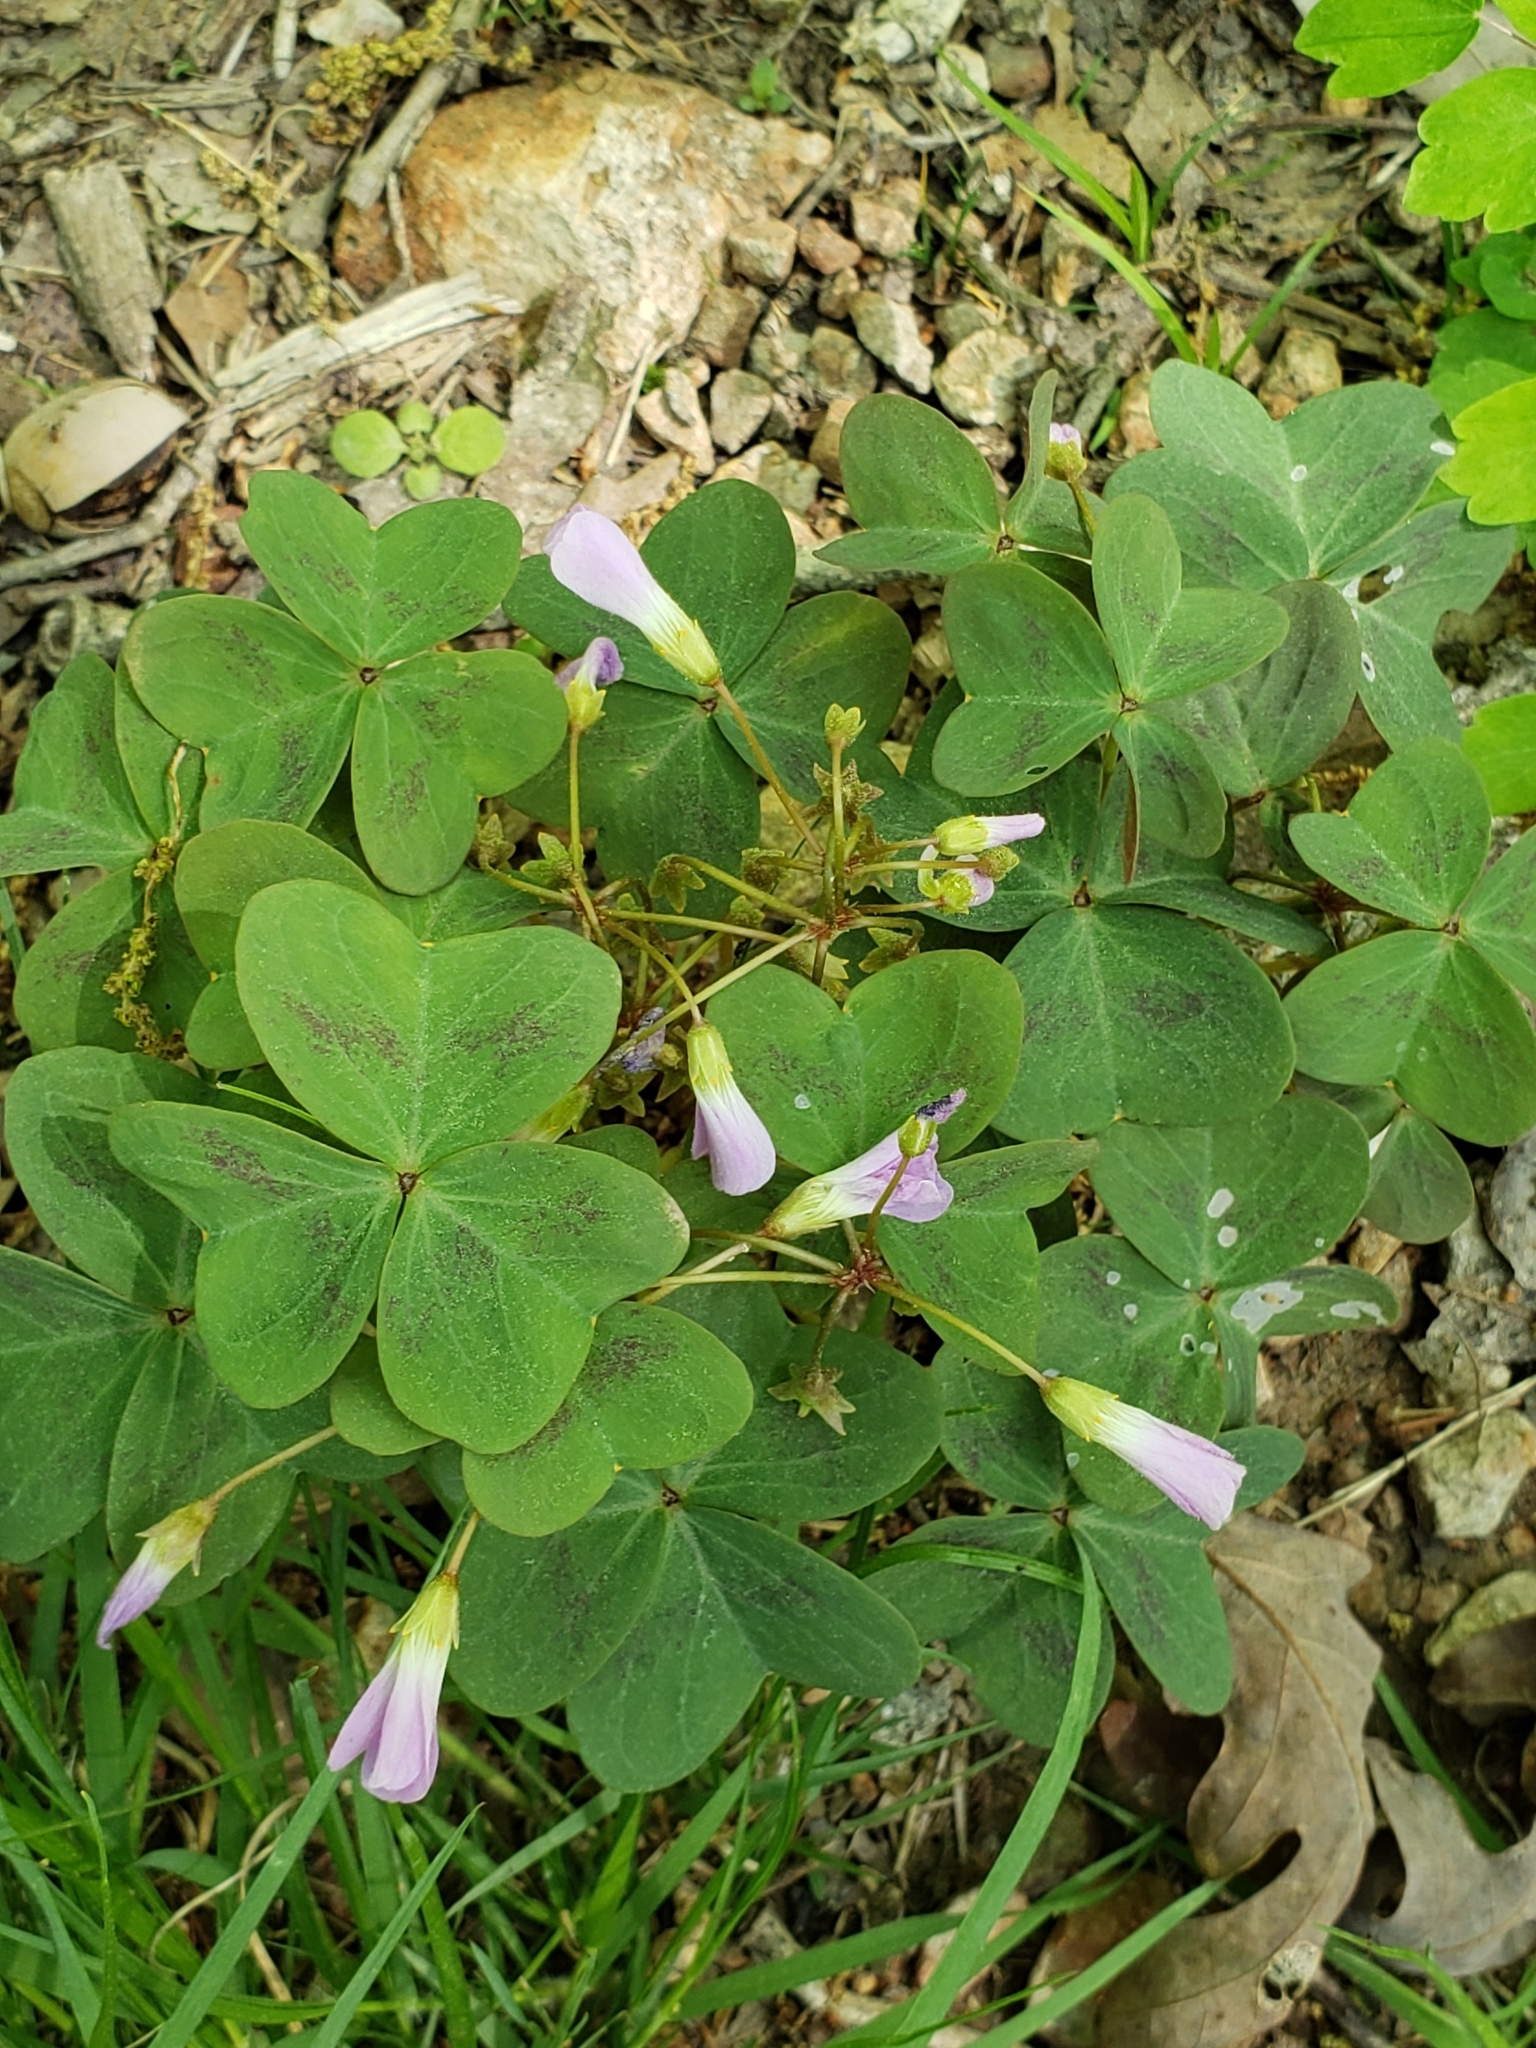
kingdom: Plantae
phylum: Tracheophyta
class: Magnoliopsida
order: Oxalidales
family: Oxalidaceae
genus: Oxalis
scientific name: Oxalis violacea
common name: Violet wood-sorrel
